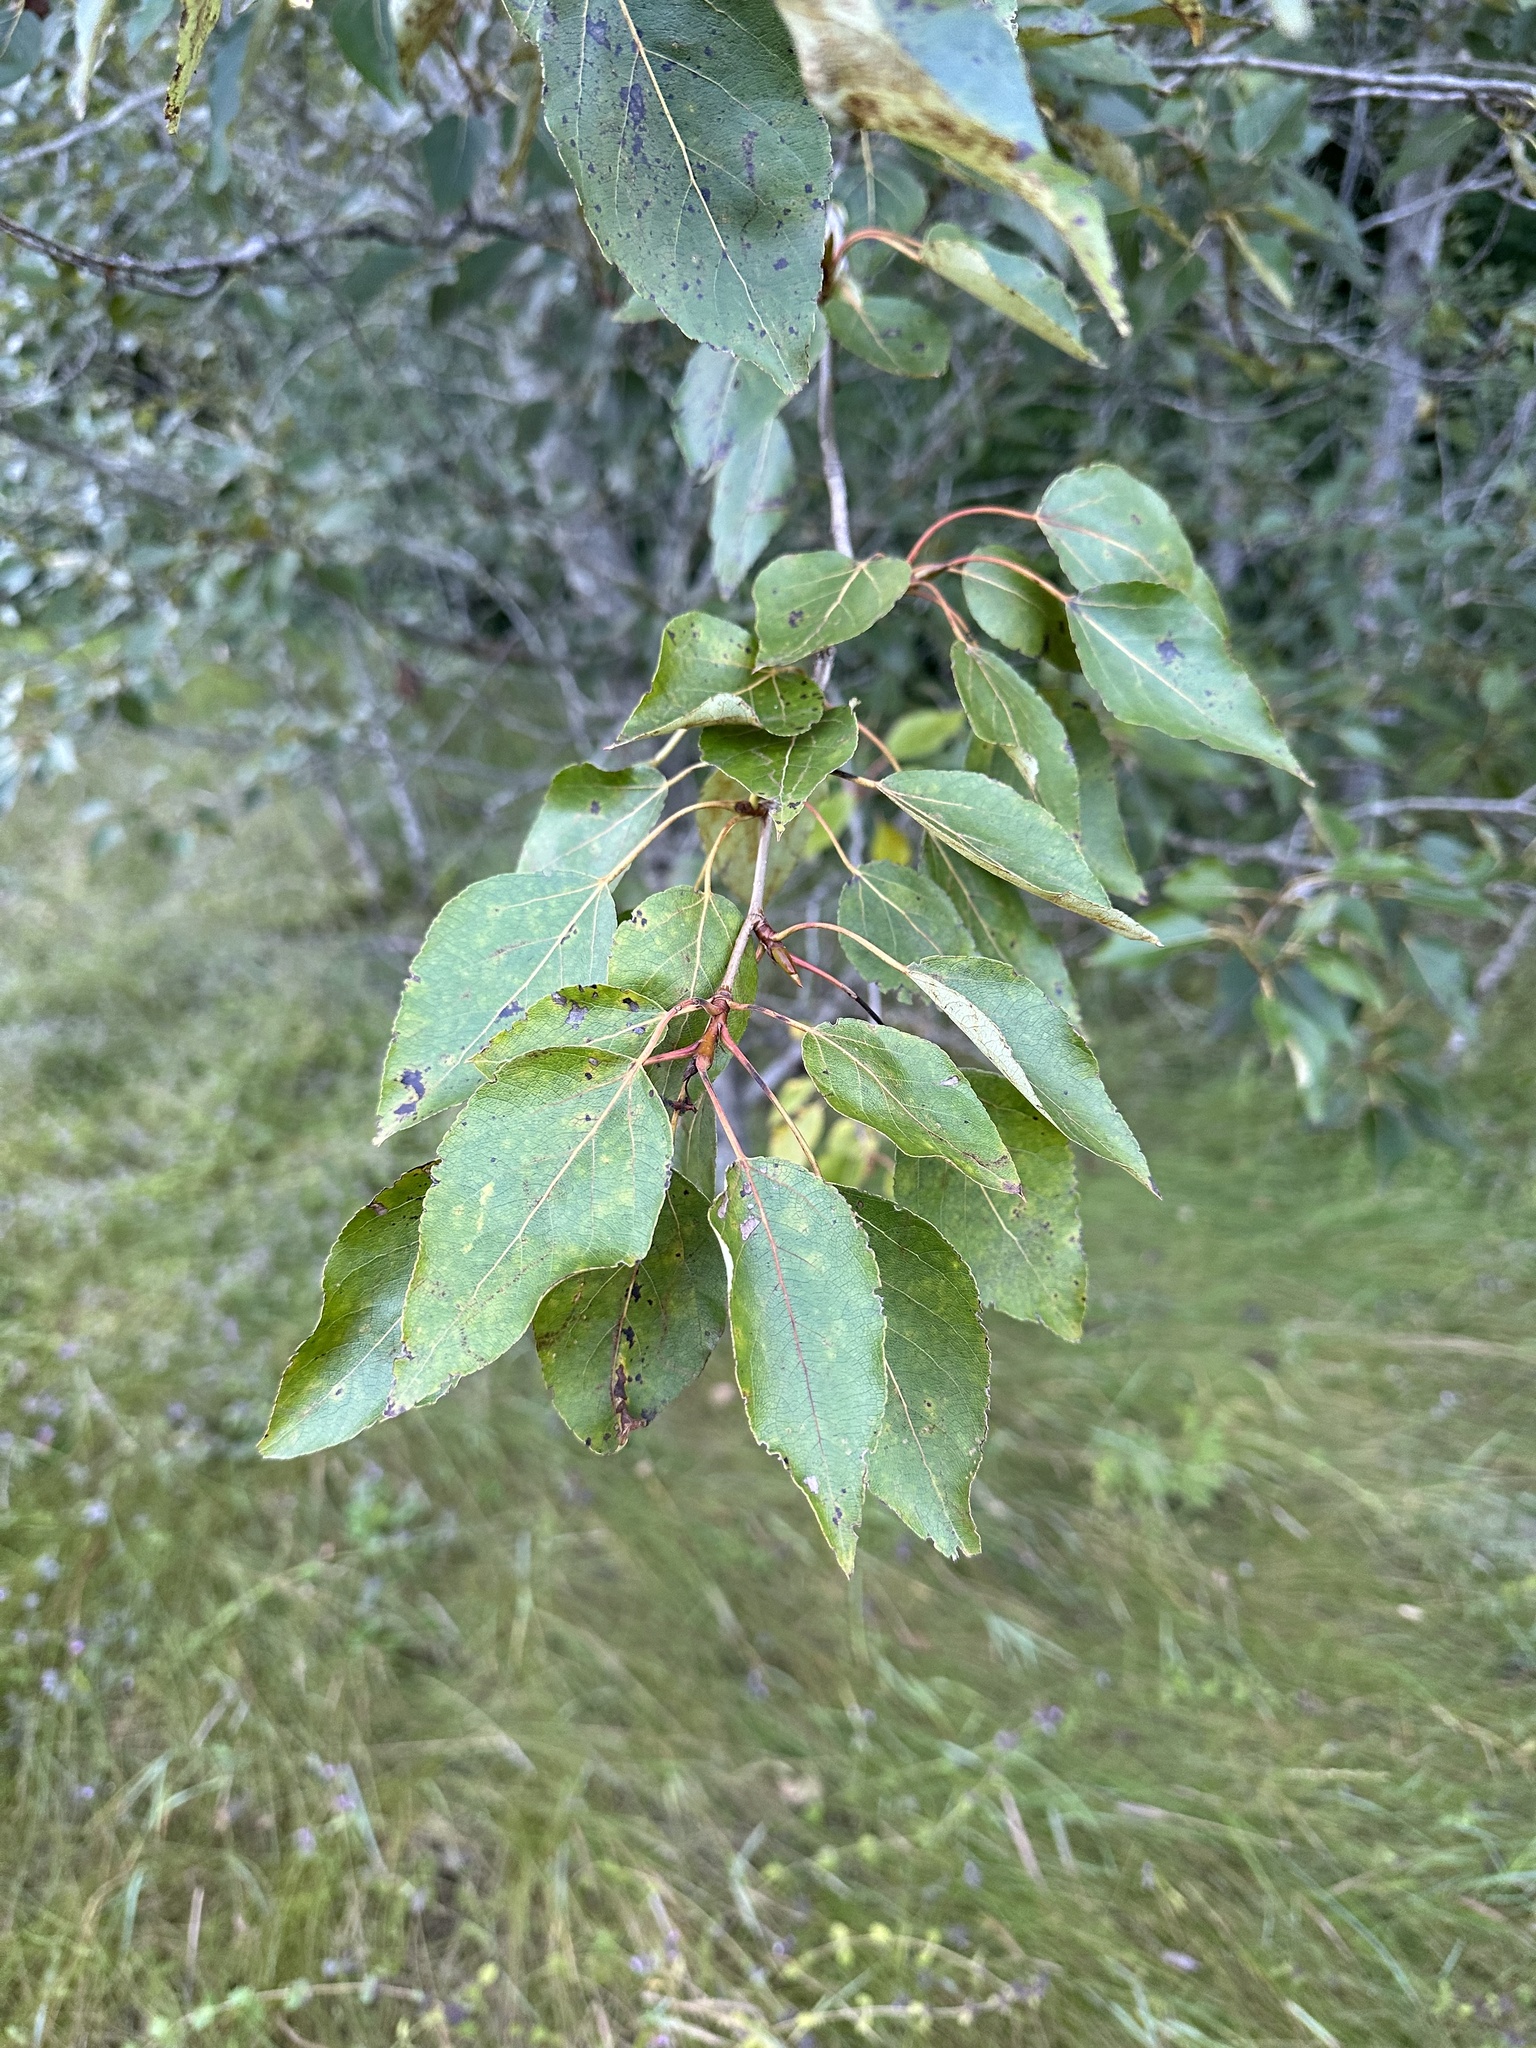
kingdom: Plantae
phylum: Tracheophyta
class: Magnoliopsida
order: Malpighiales
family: Salicaceae
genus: Populus
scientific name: Populus balsamifera
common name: Balsam poplar
